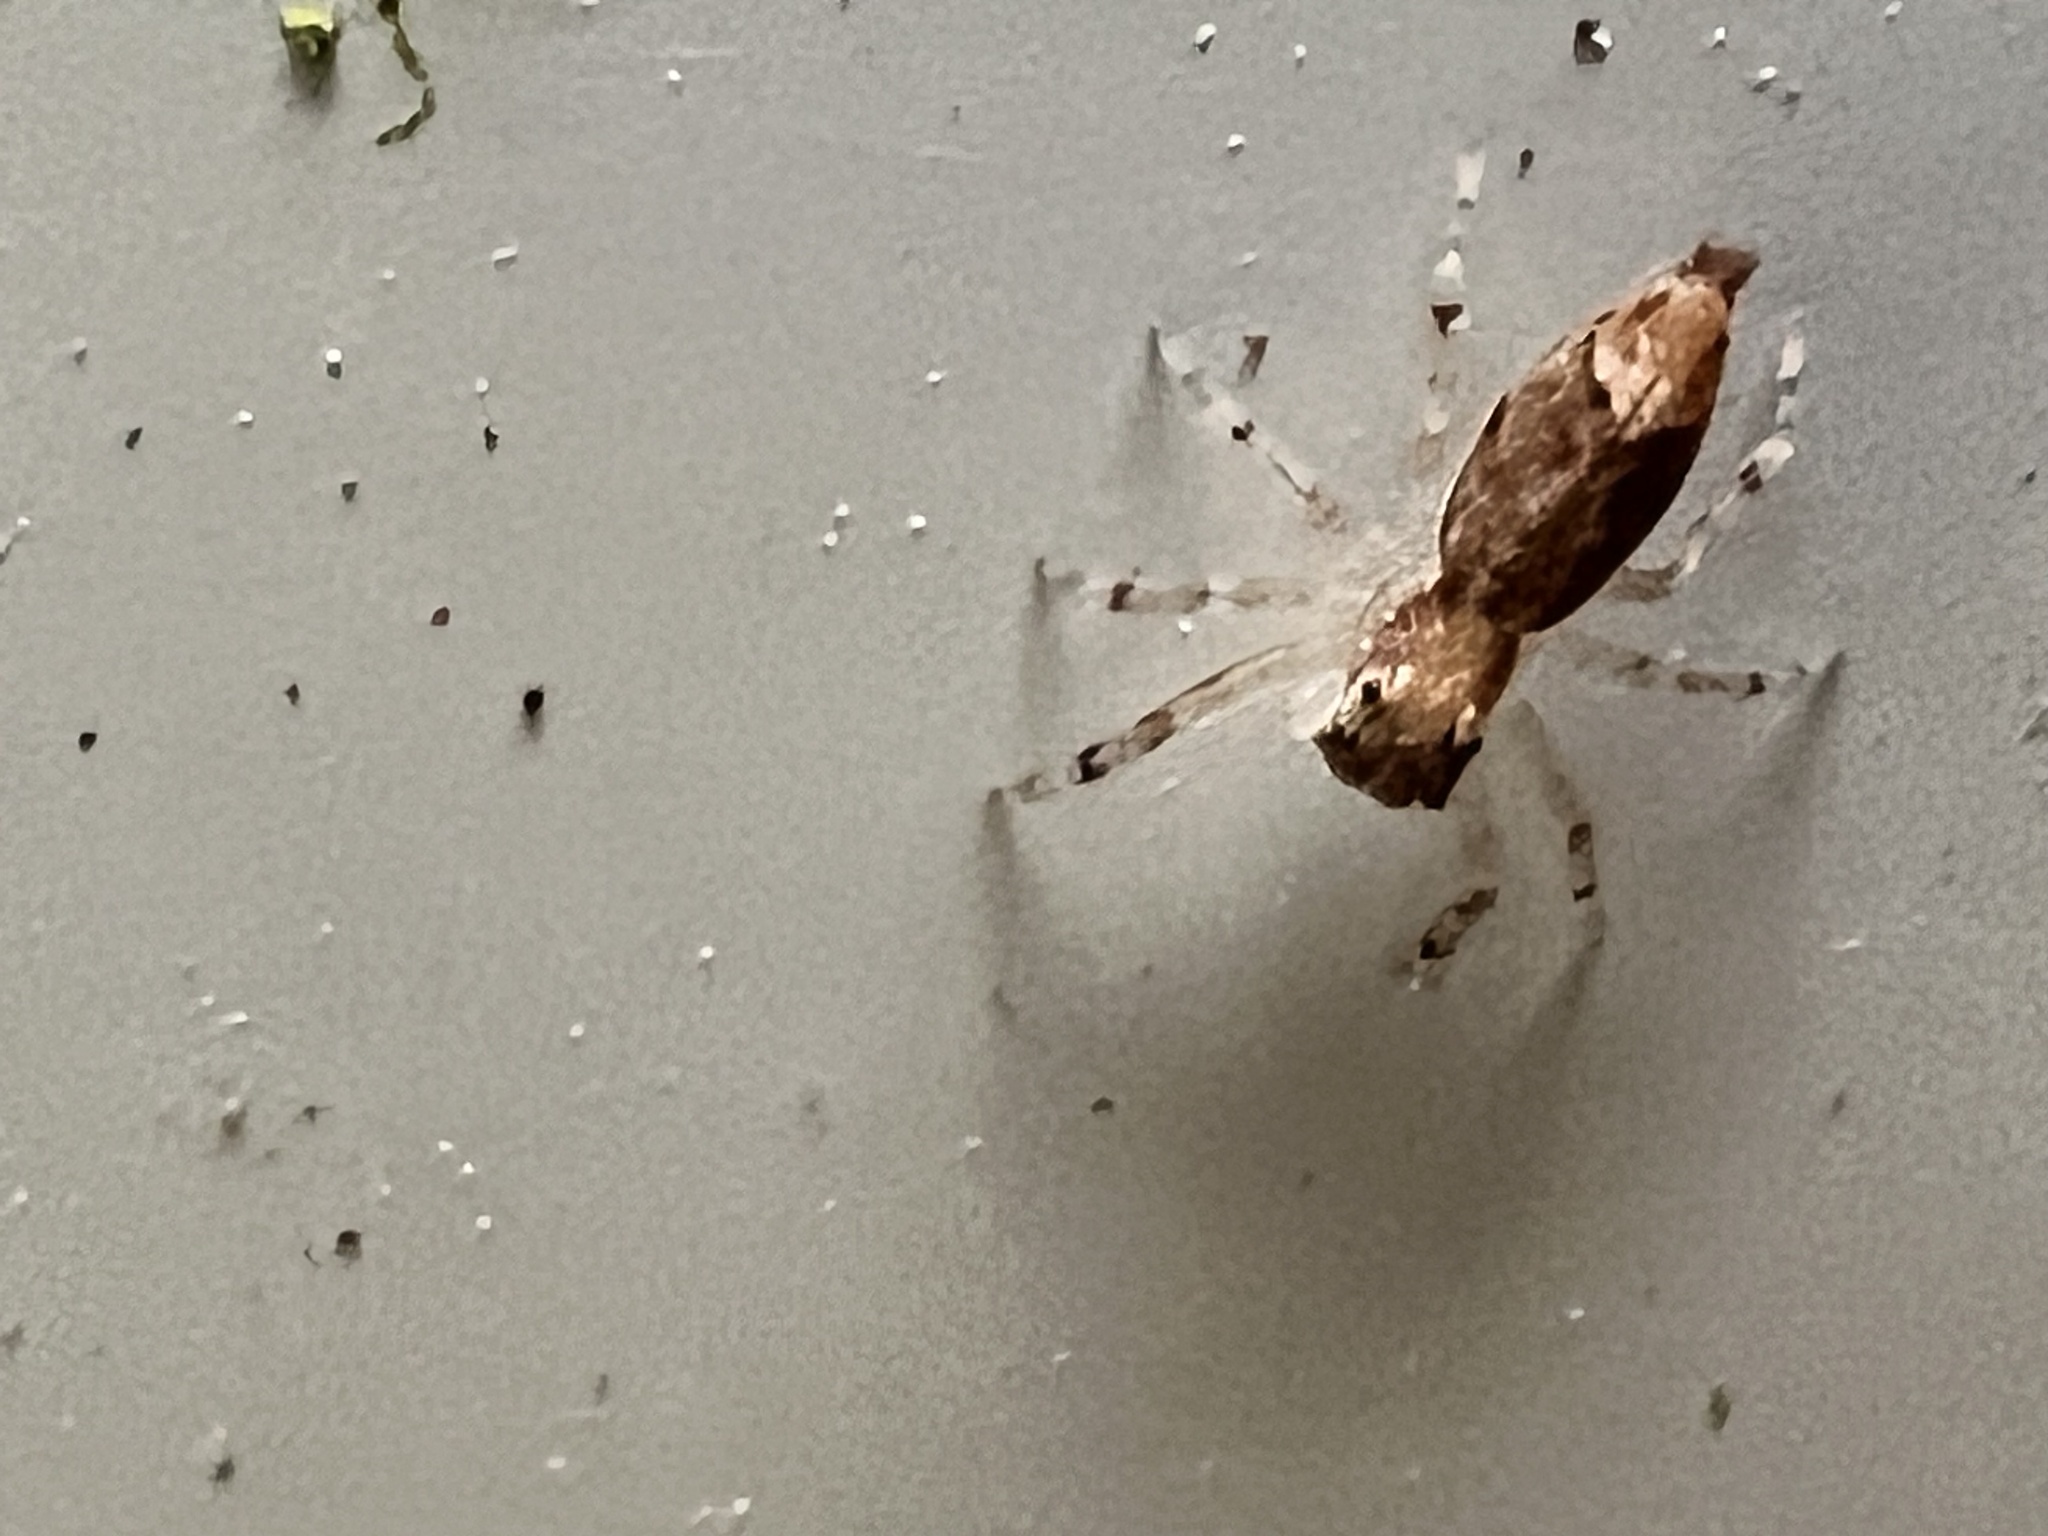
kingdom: Animalia
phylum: Arthropoda
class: Arachnida
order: Araneae
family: Salticidae
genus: Helpis
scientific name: Helpis minitabunda
